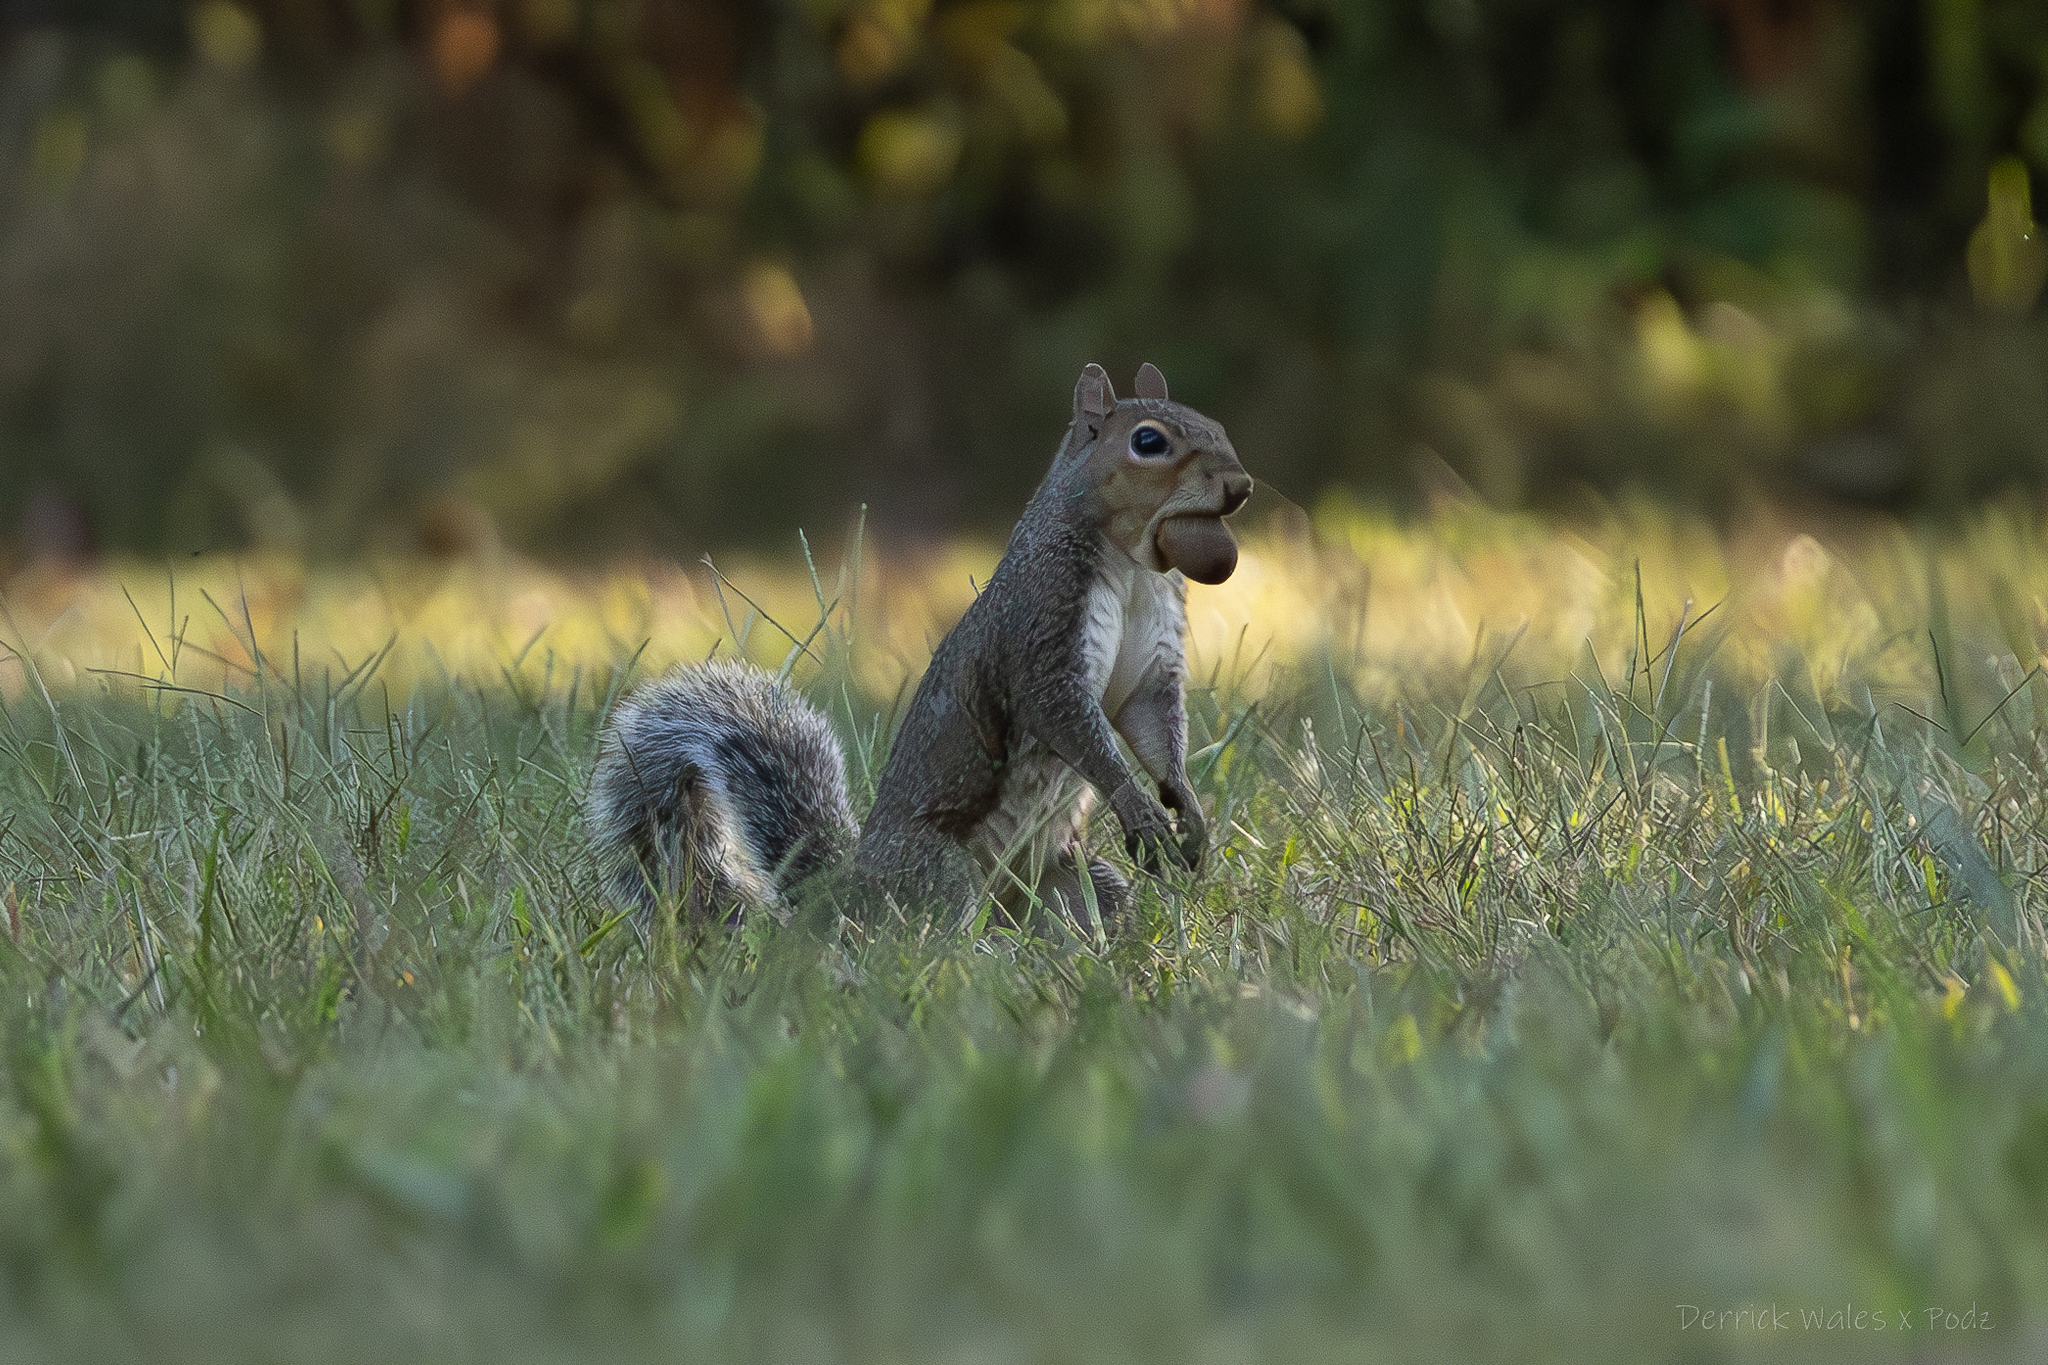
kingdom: Animalia
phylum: Chordata
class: Mammalia
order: Rodentia
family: Sciuridae
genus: Sciurus
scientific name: Sciurus carolinensis
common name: Eastern gray squirrel
